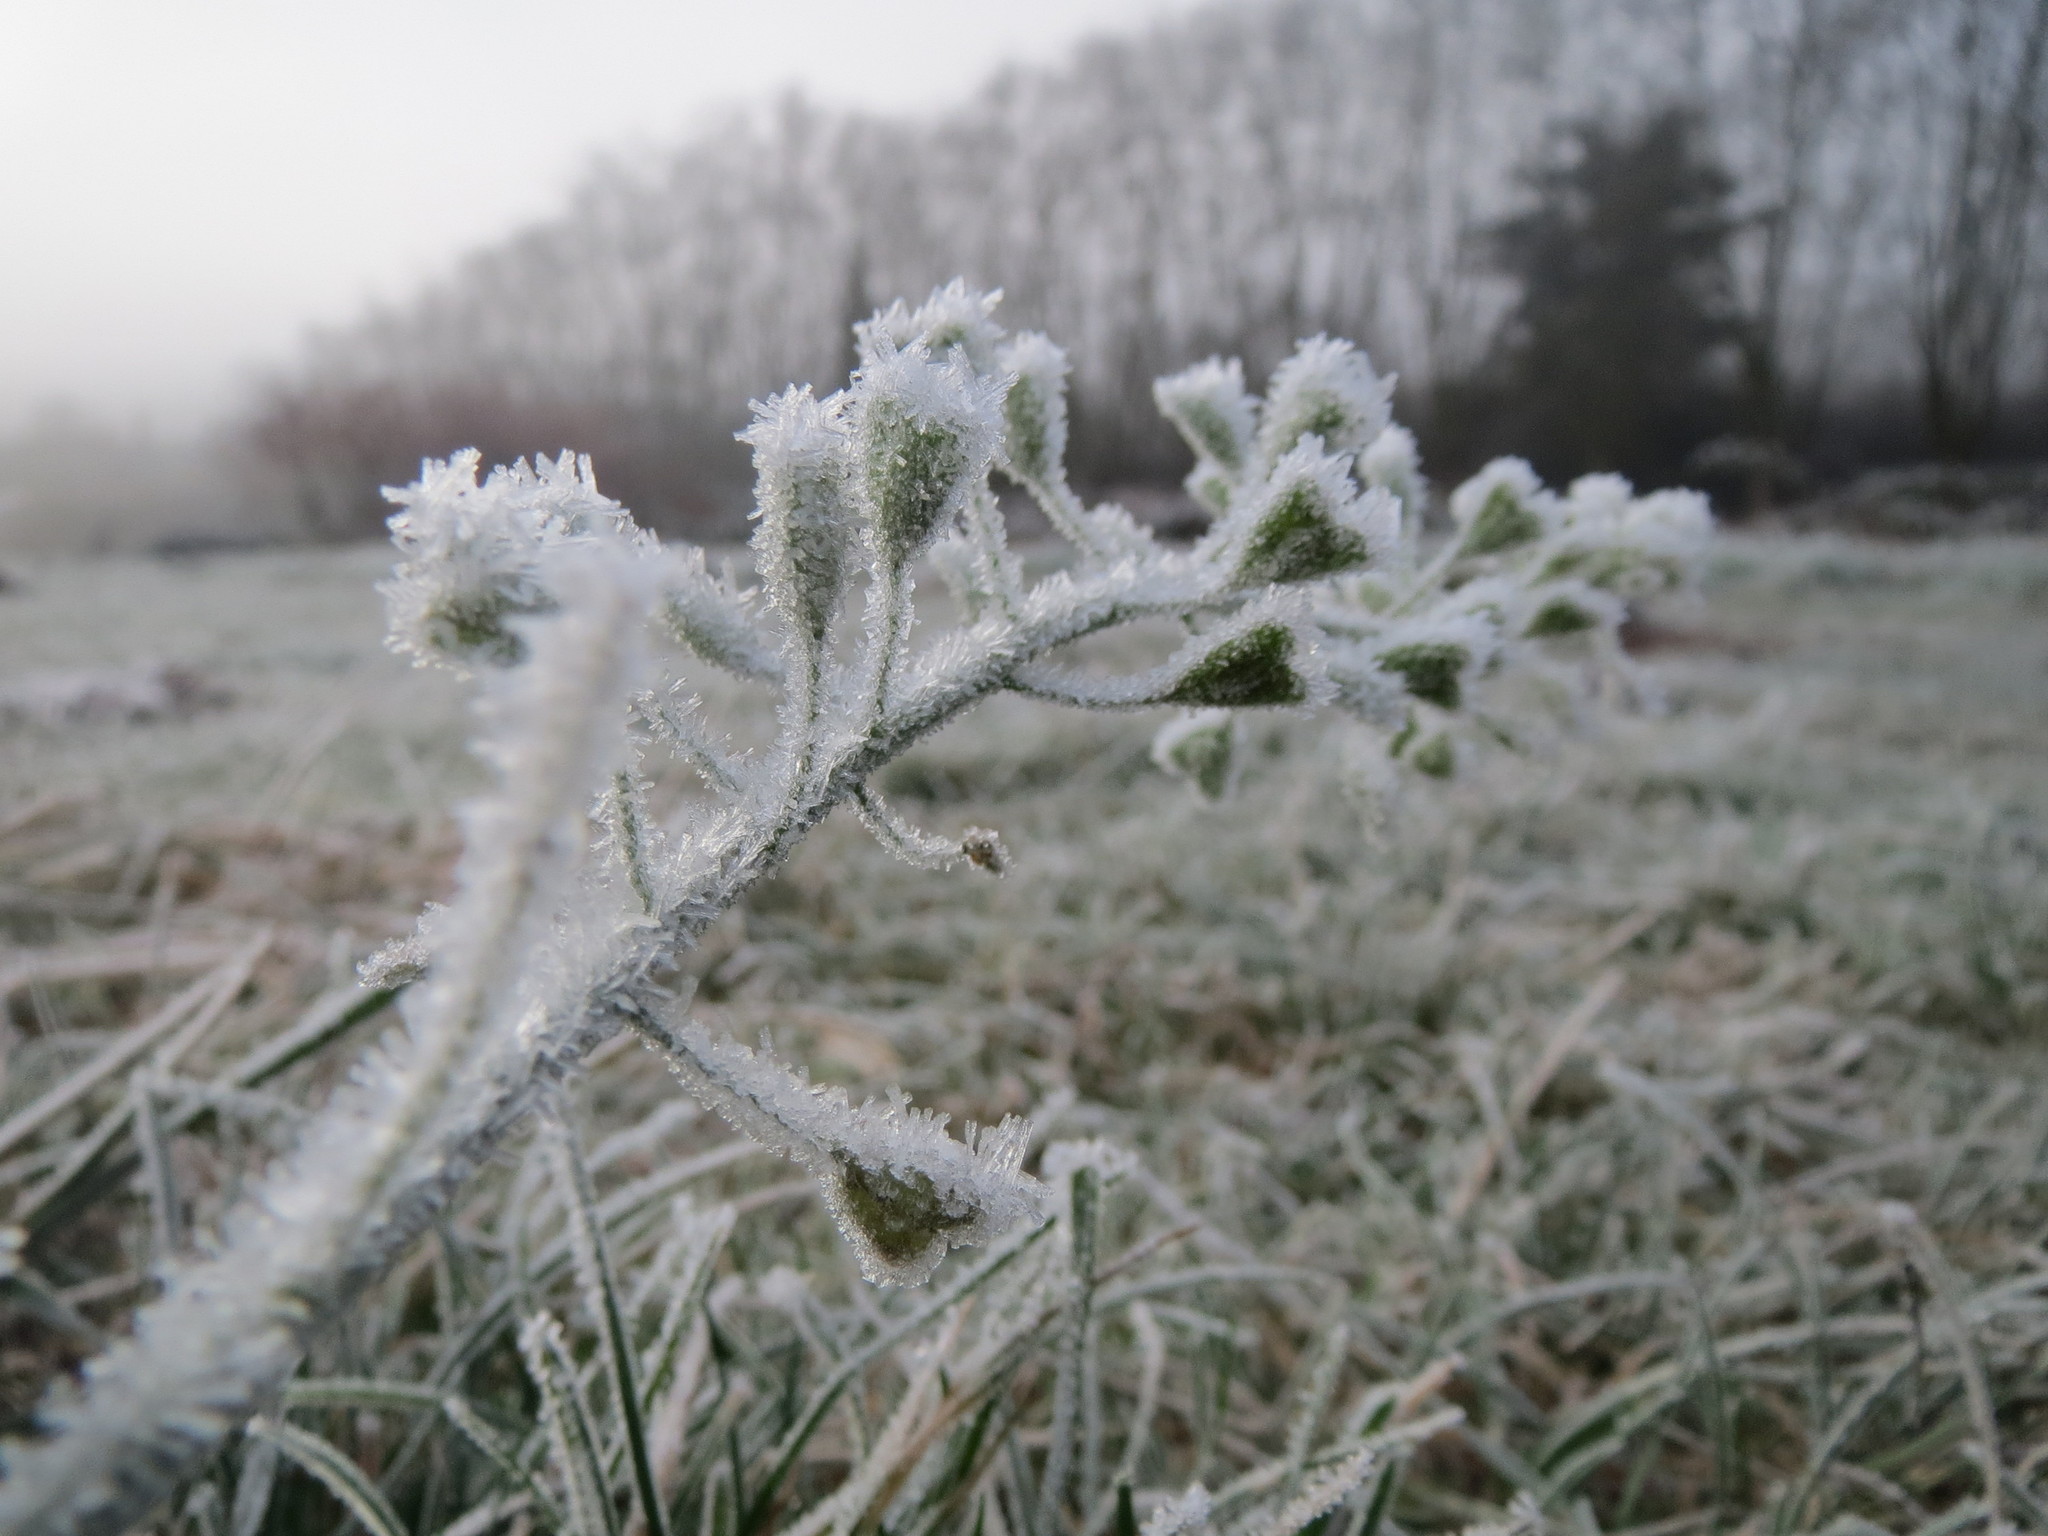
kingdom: Plantae
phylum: Tracheophyta
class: Magnoliopsida
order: Brassicales
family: Brassicaceae
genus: Capsella
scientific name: Capsella bursa-pastoris
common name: Shepherd's purse
